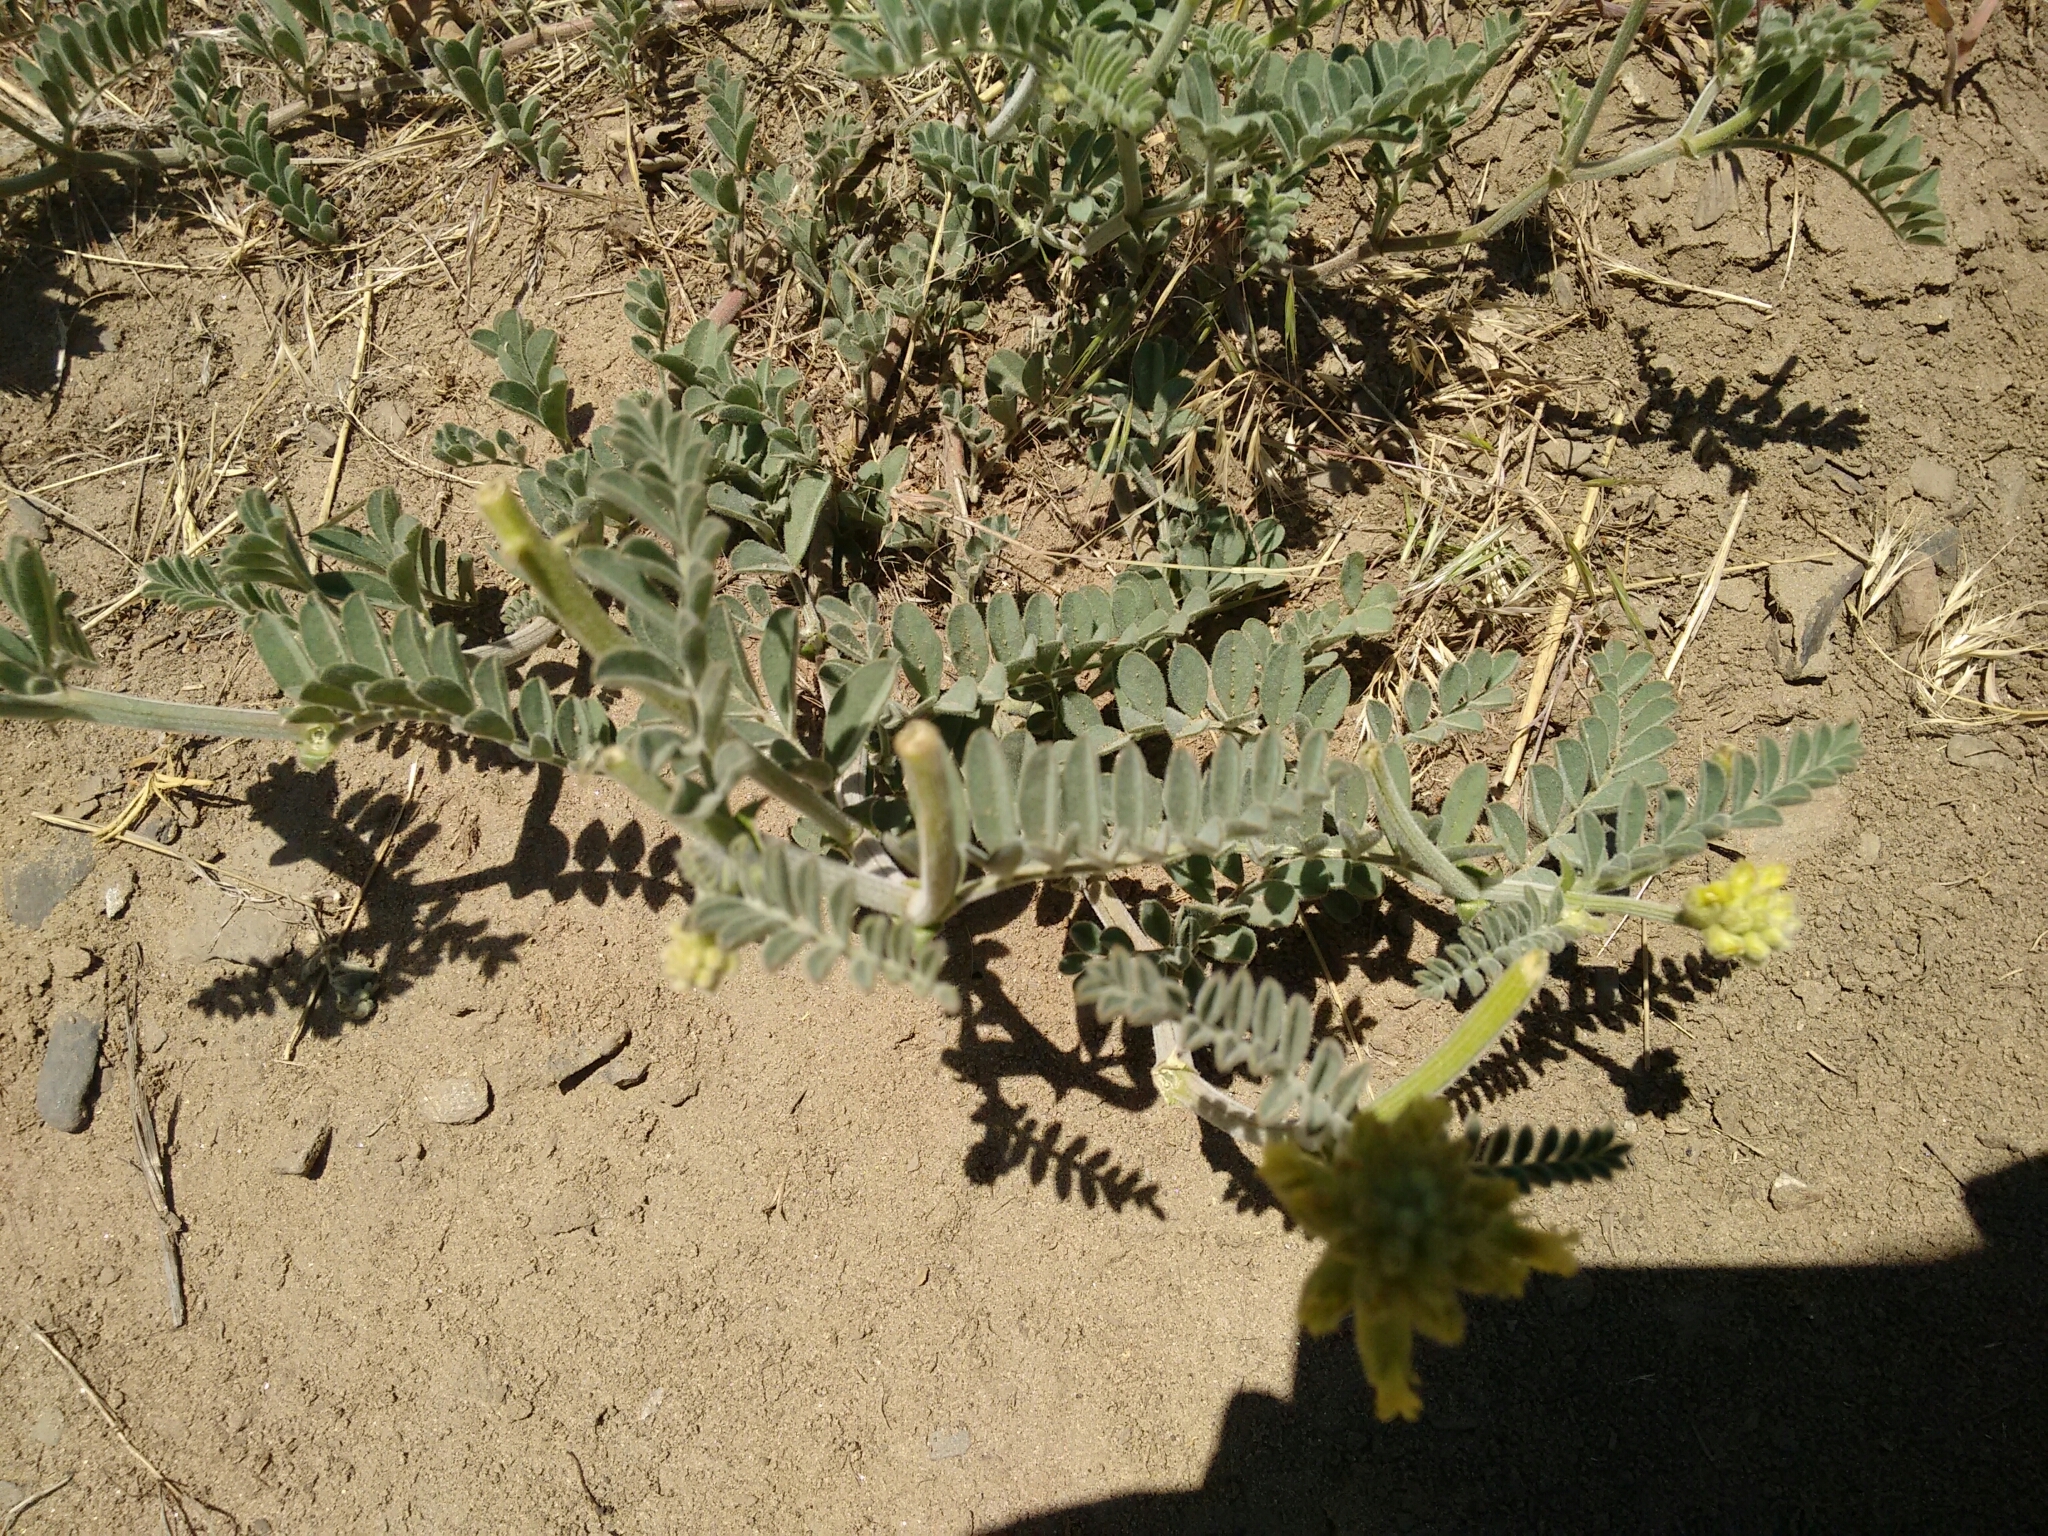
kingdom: Plantae
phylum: Tracheophyta
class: Magnoliopsida
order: Fabales
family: Fabaceae
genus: Astragalus
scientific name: Astragalus gibbsii
